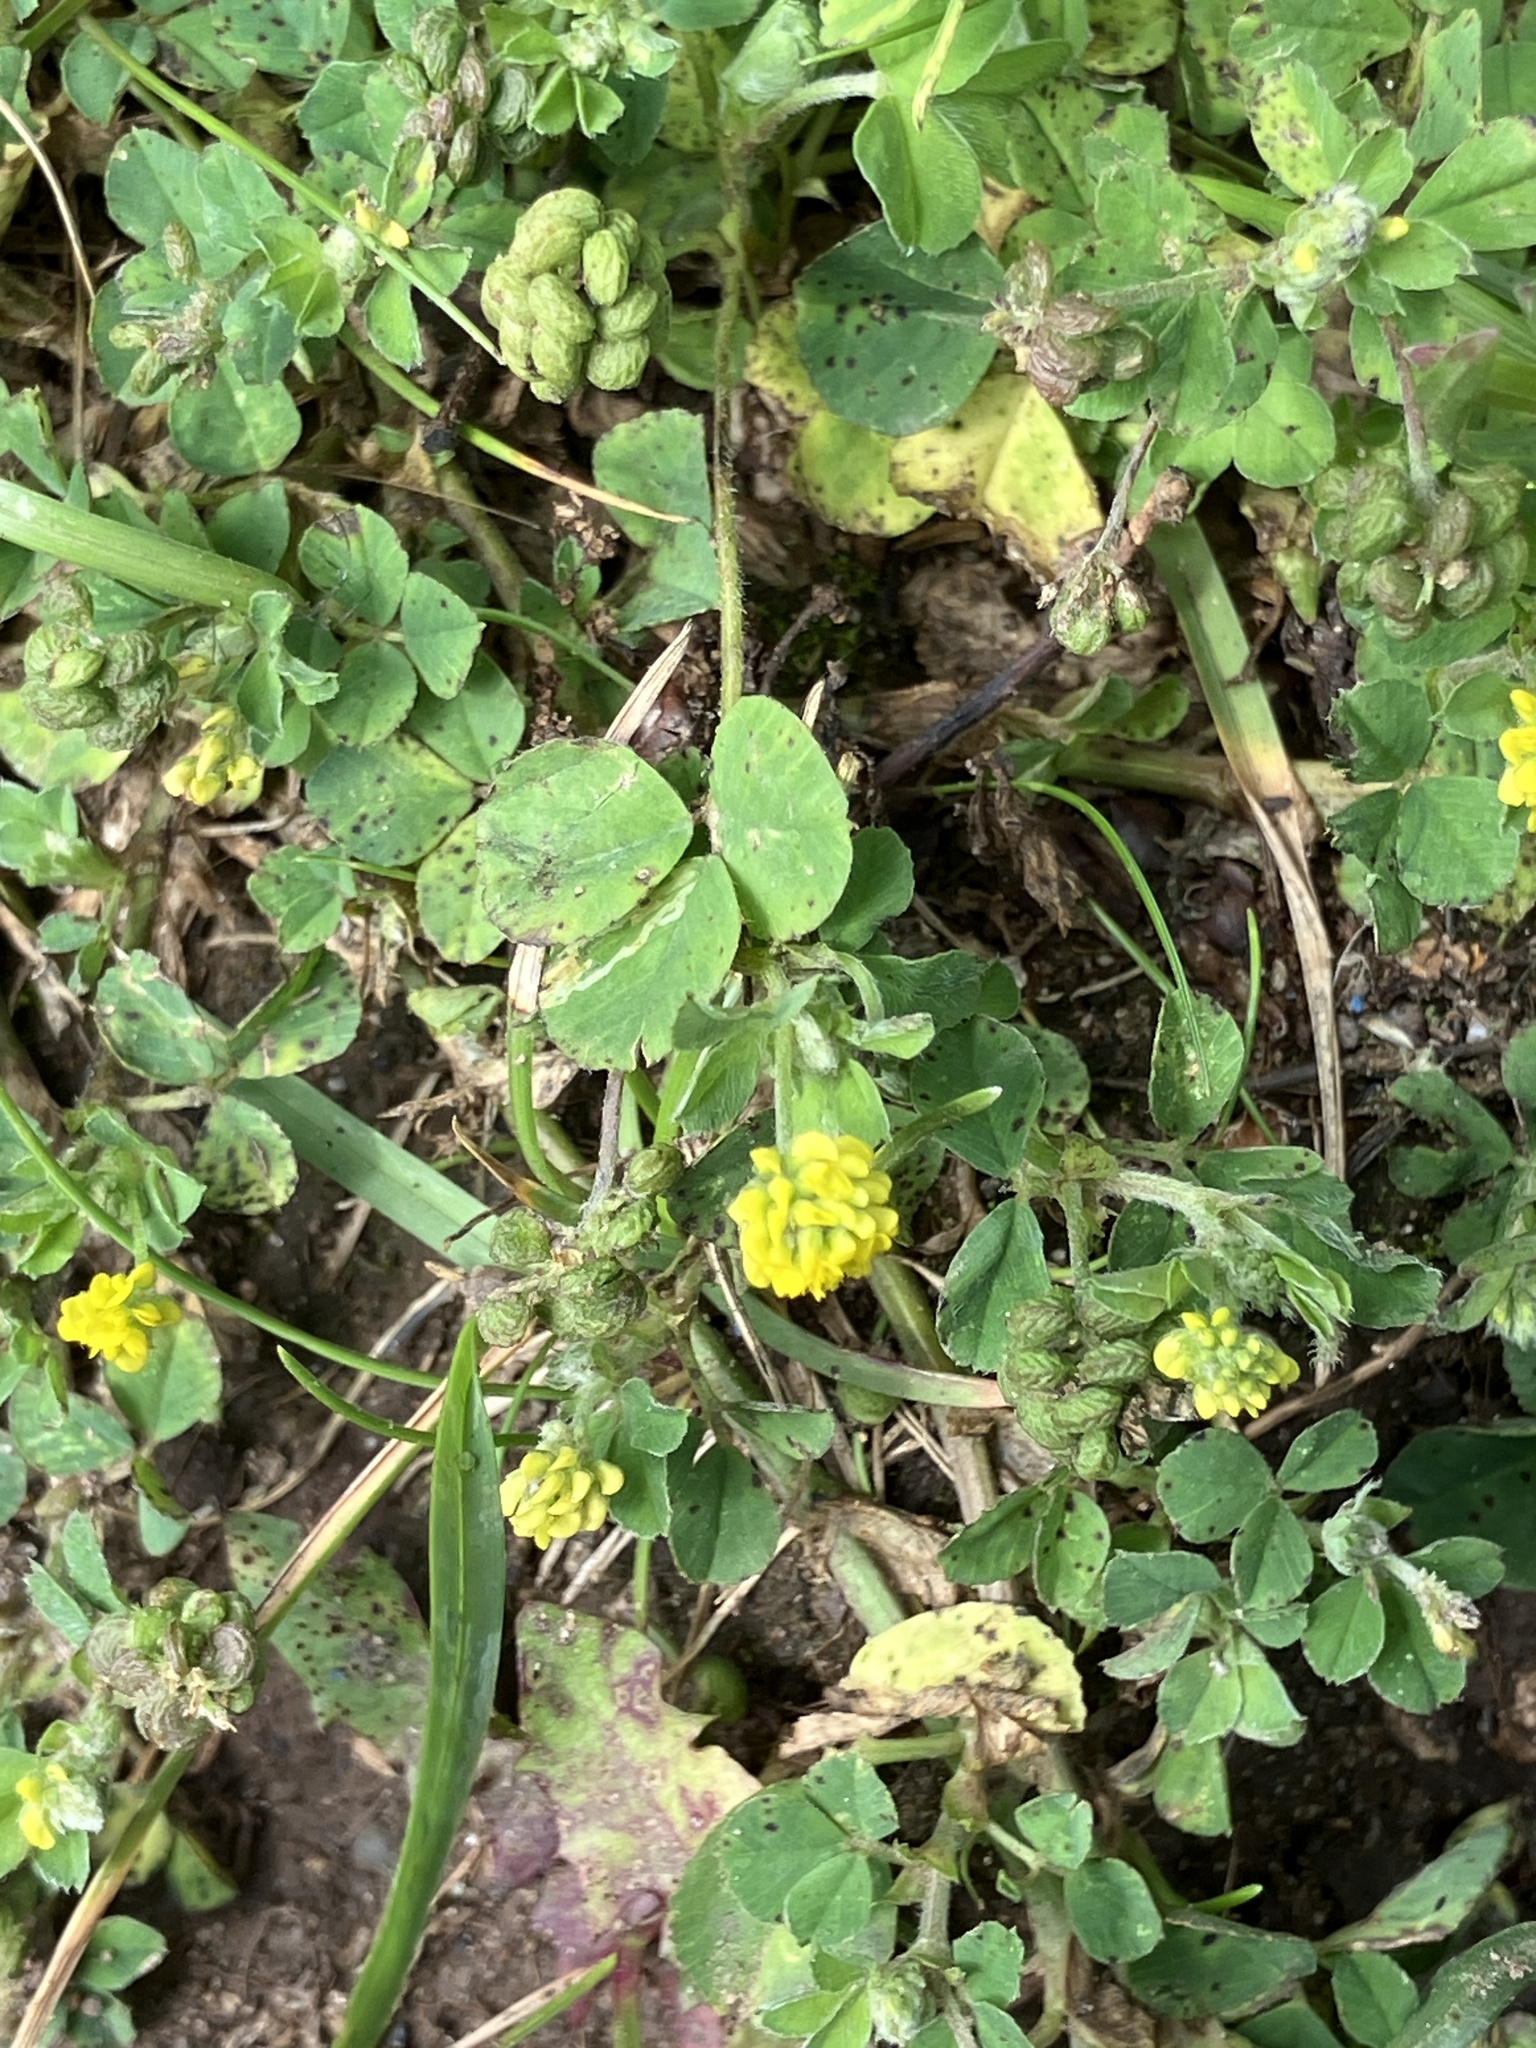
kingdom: Plantae
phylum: Tracheophyta
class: Magnoliopsida
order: Fabales
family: Fabaceae
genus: Medicago
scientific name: Medicago lupulina
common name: Black medick
